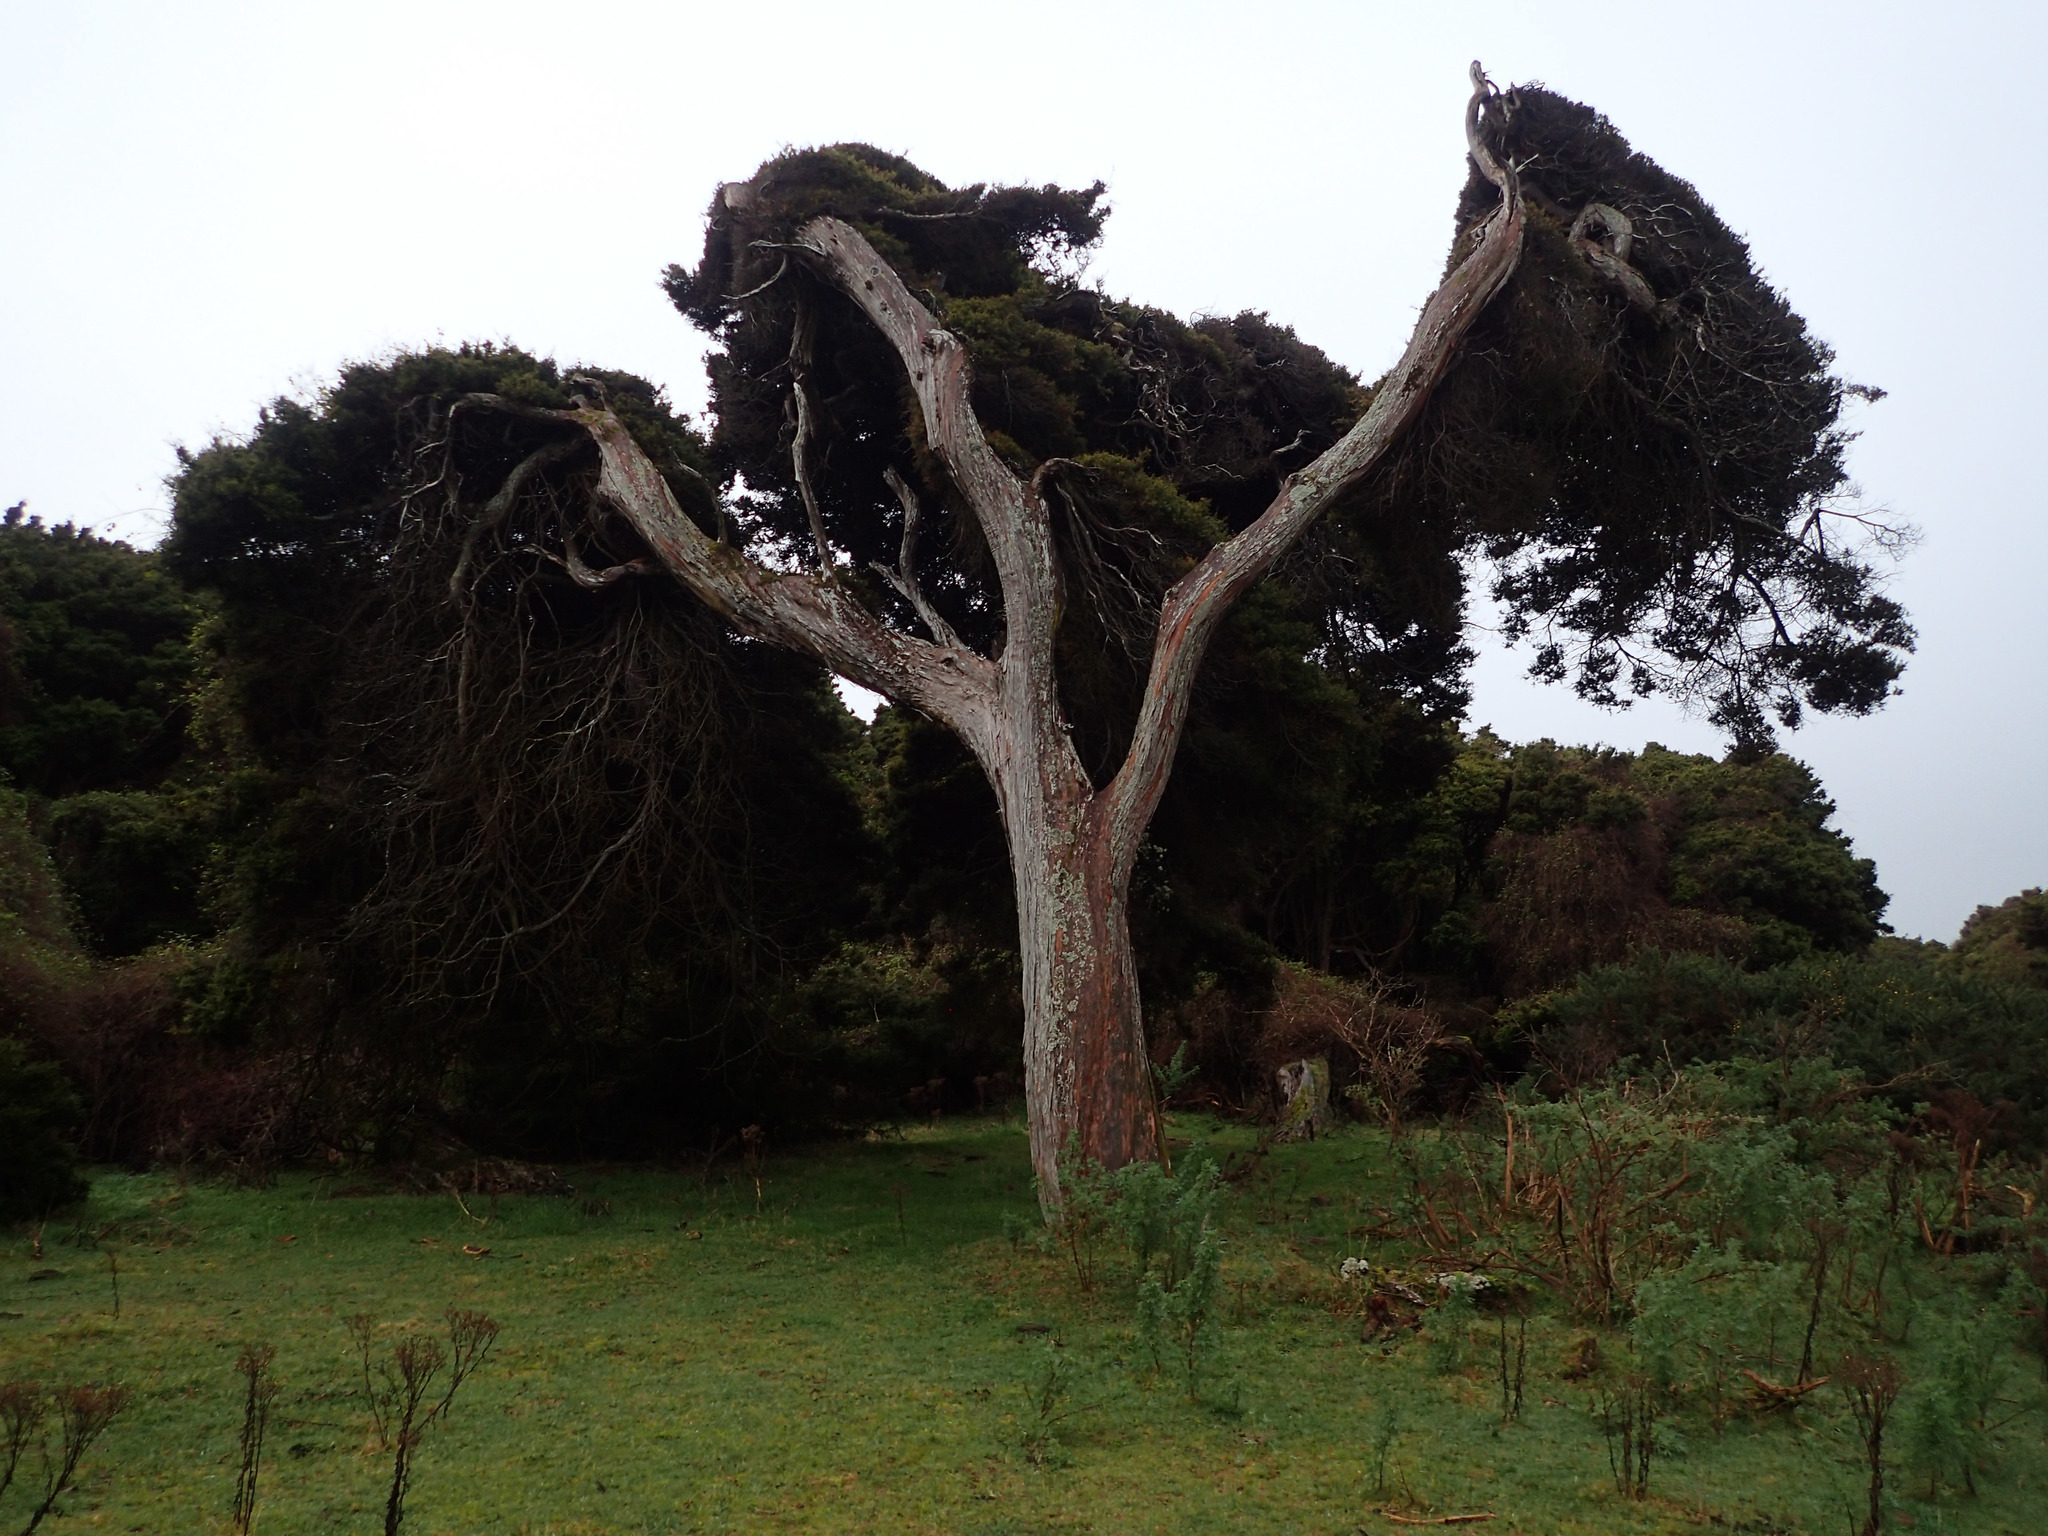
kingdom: Plantae
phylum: Tracheophyta
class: Pinopsida
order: Pinales
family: Podocarpaceae
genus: Podocarpus
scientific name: Podocarpus totara
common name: Totara
